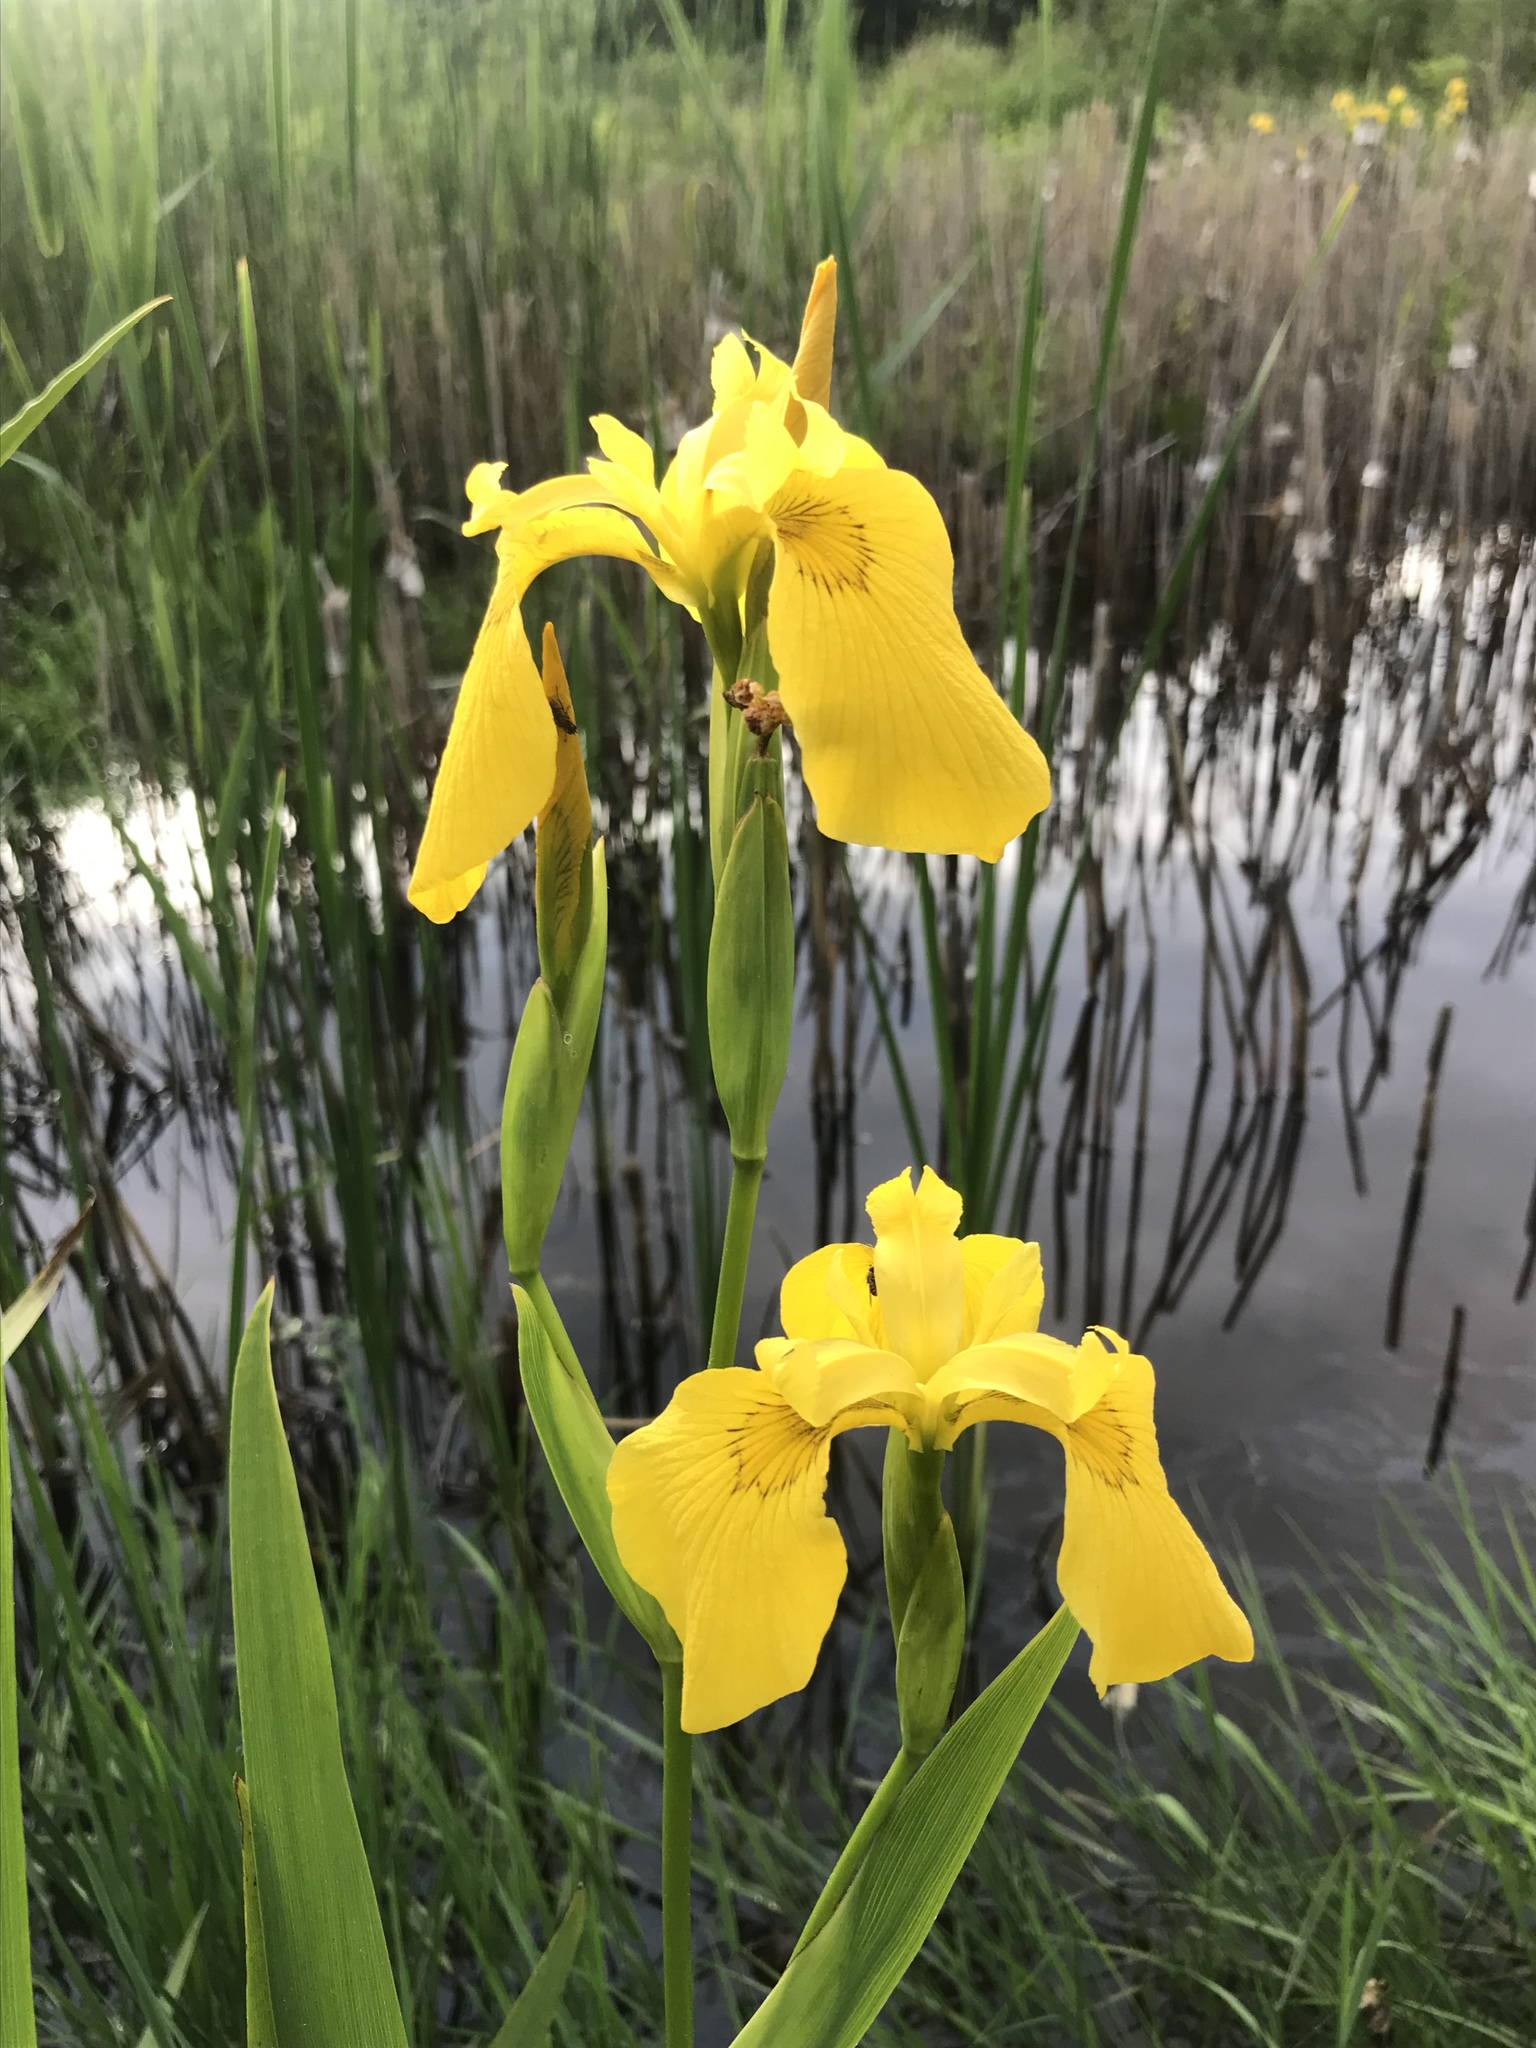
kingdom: Plantae
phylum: Tracheophyta
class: Liliopsida
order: Asparagales
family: Iridaceae
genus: Iris
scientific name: Iris pseudacorus
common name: Yellow flag
